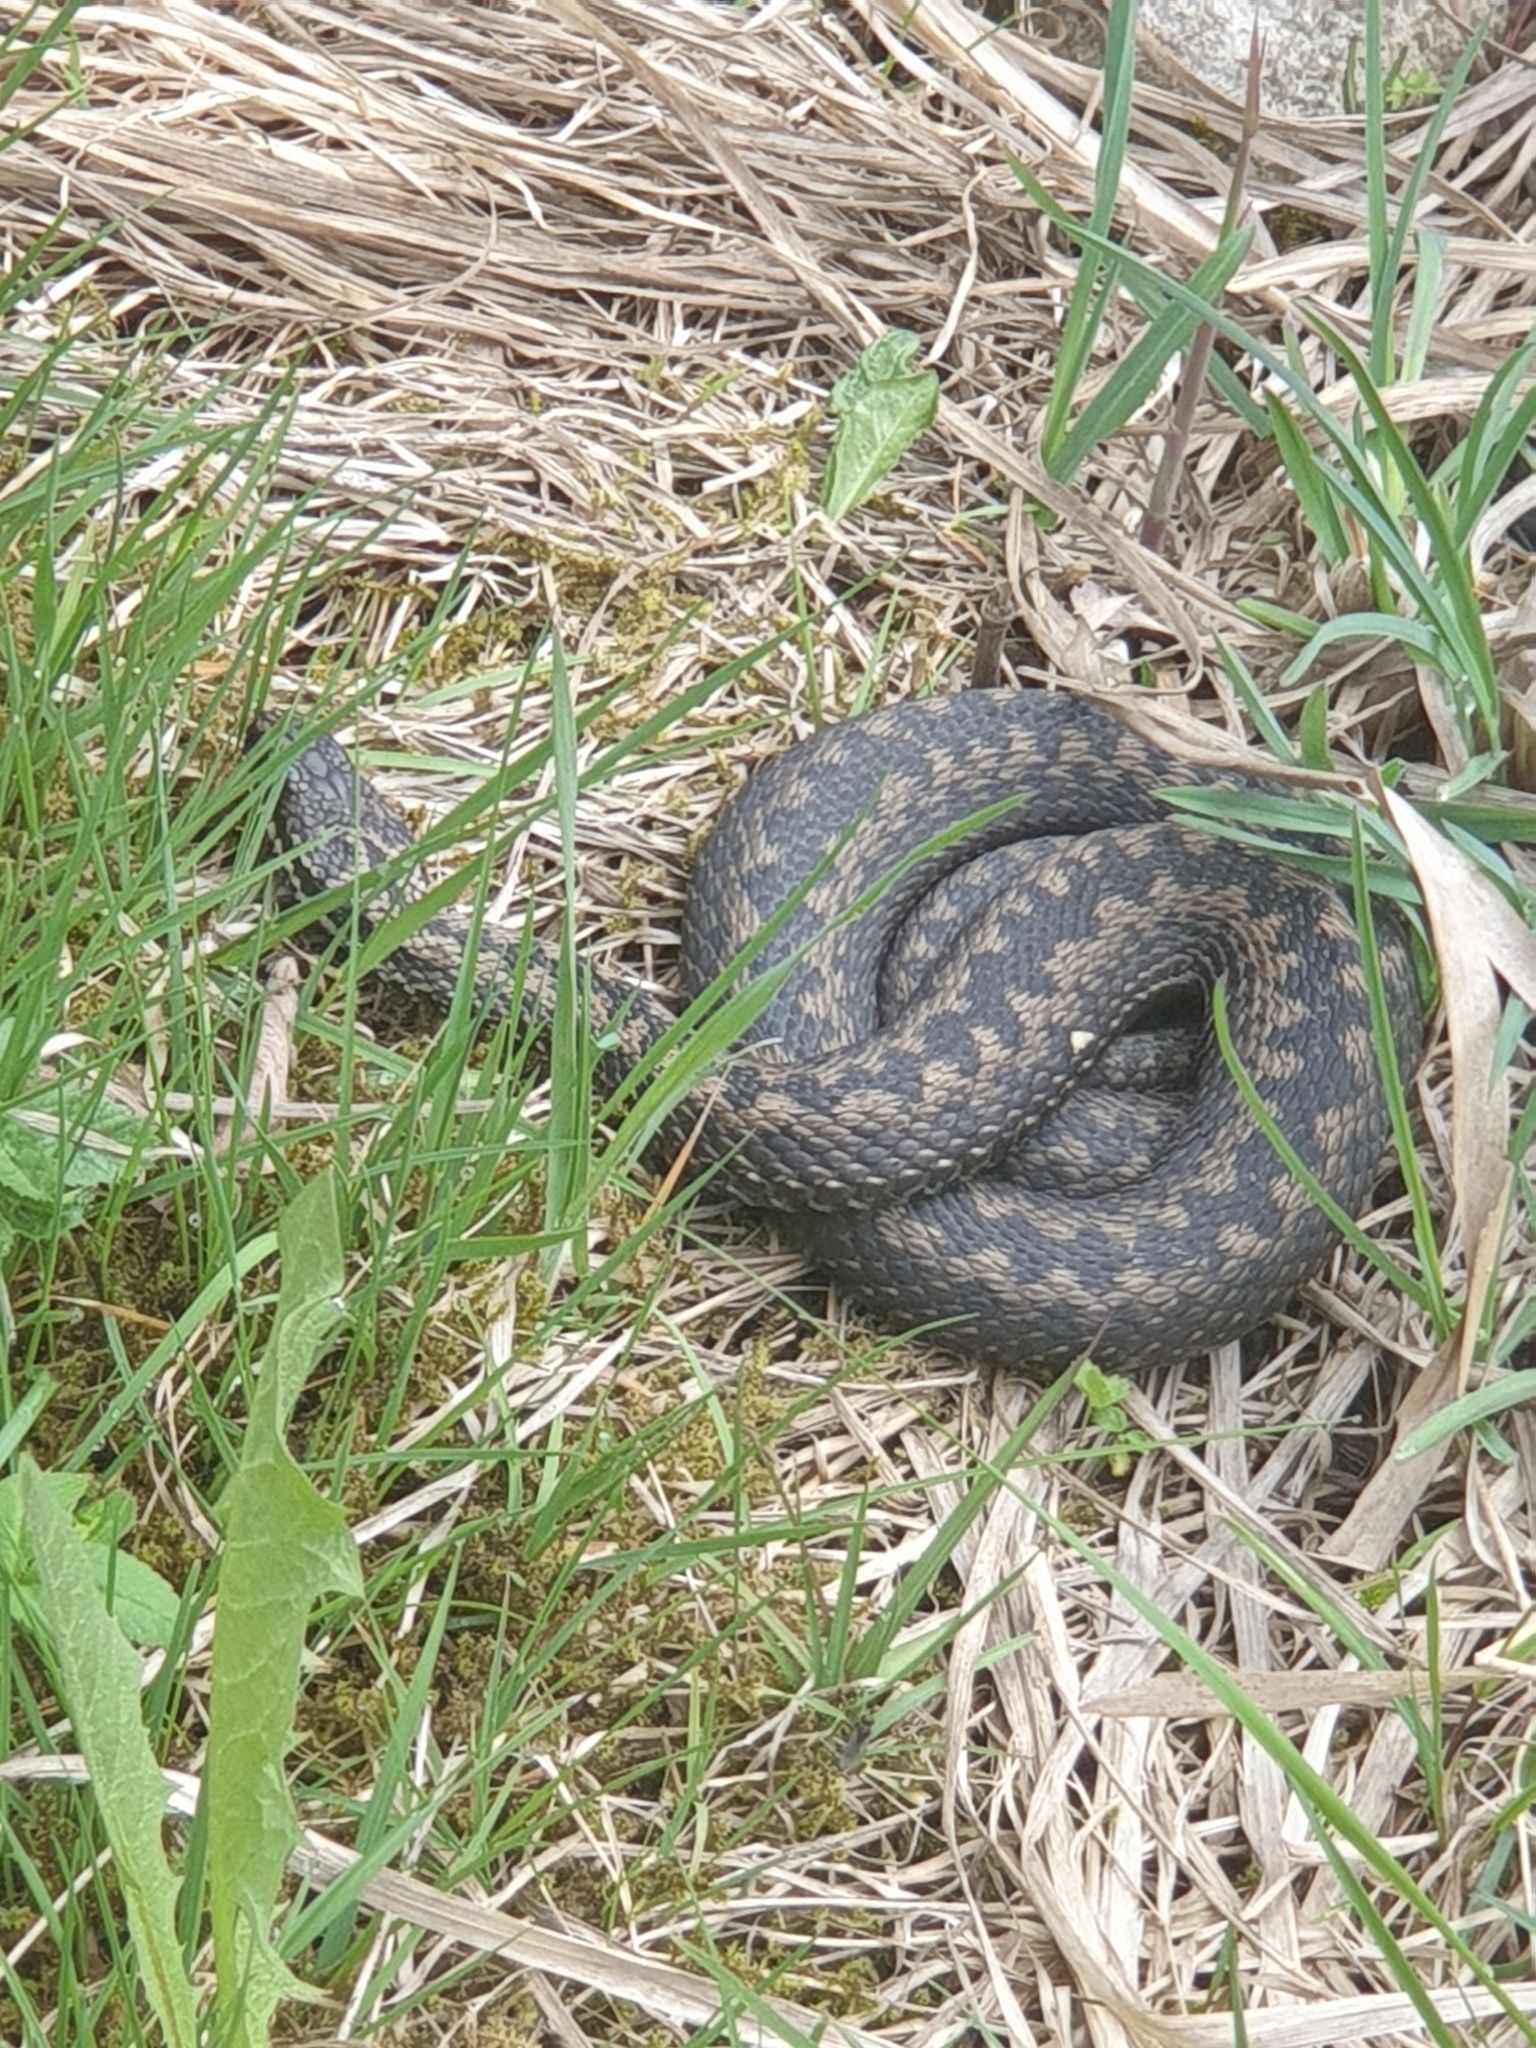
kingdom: Animalia
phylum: Chordata
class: Squamata
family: Viperidae
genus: Vipera
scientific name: Vipera berus
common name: Adder
